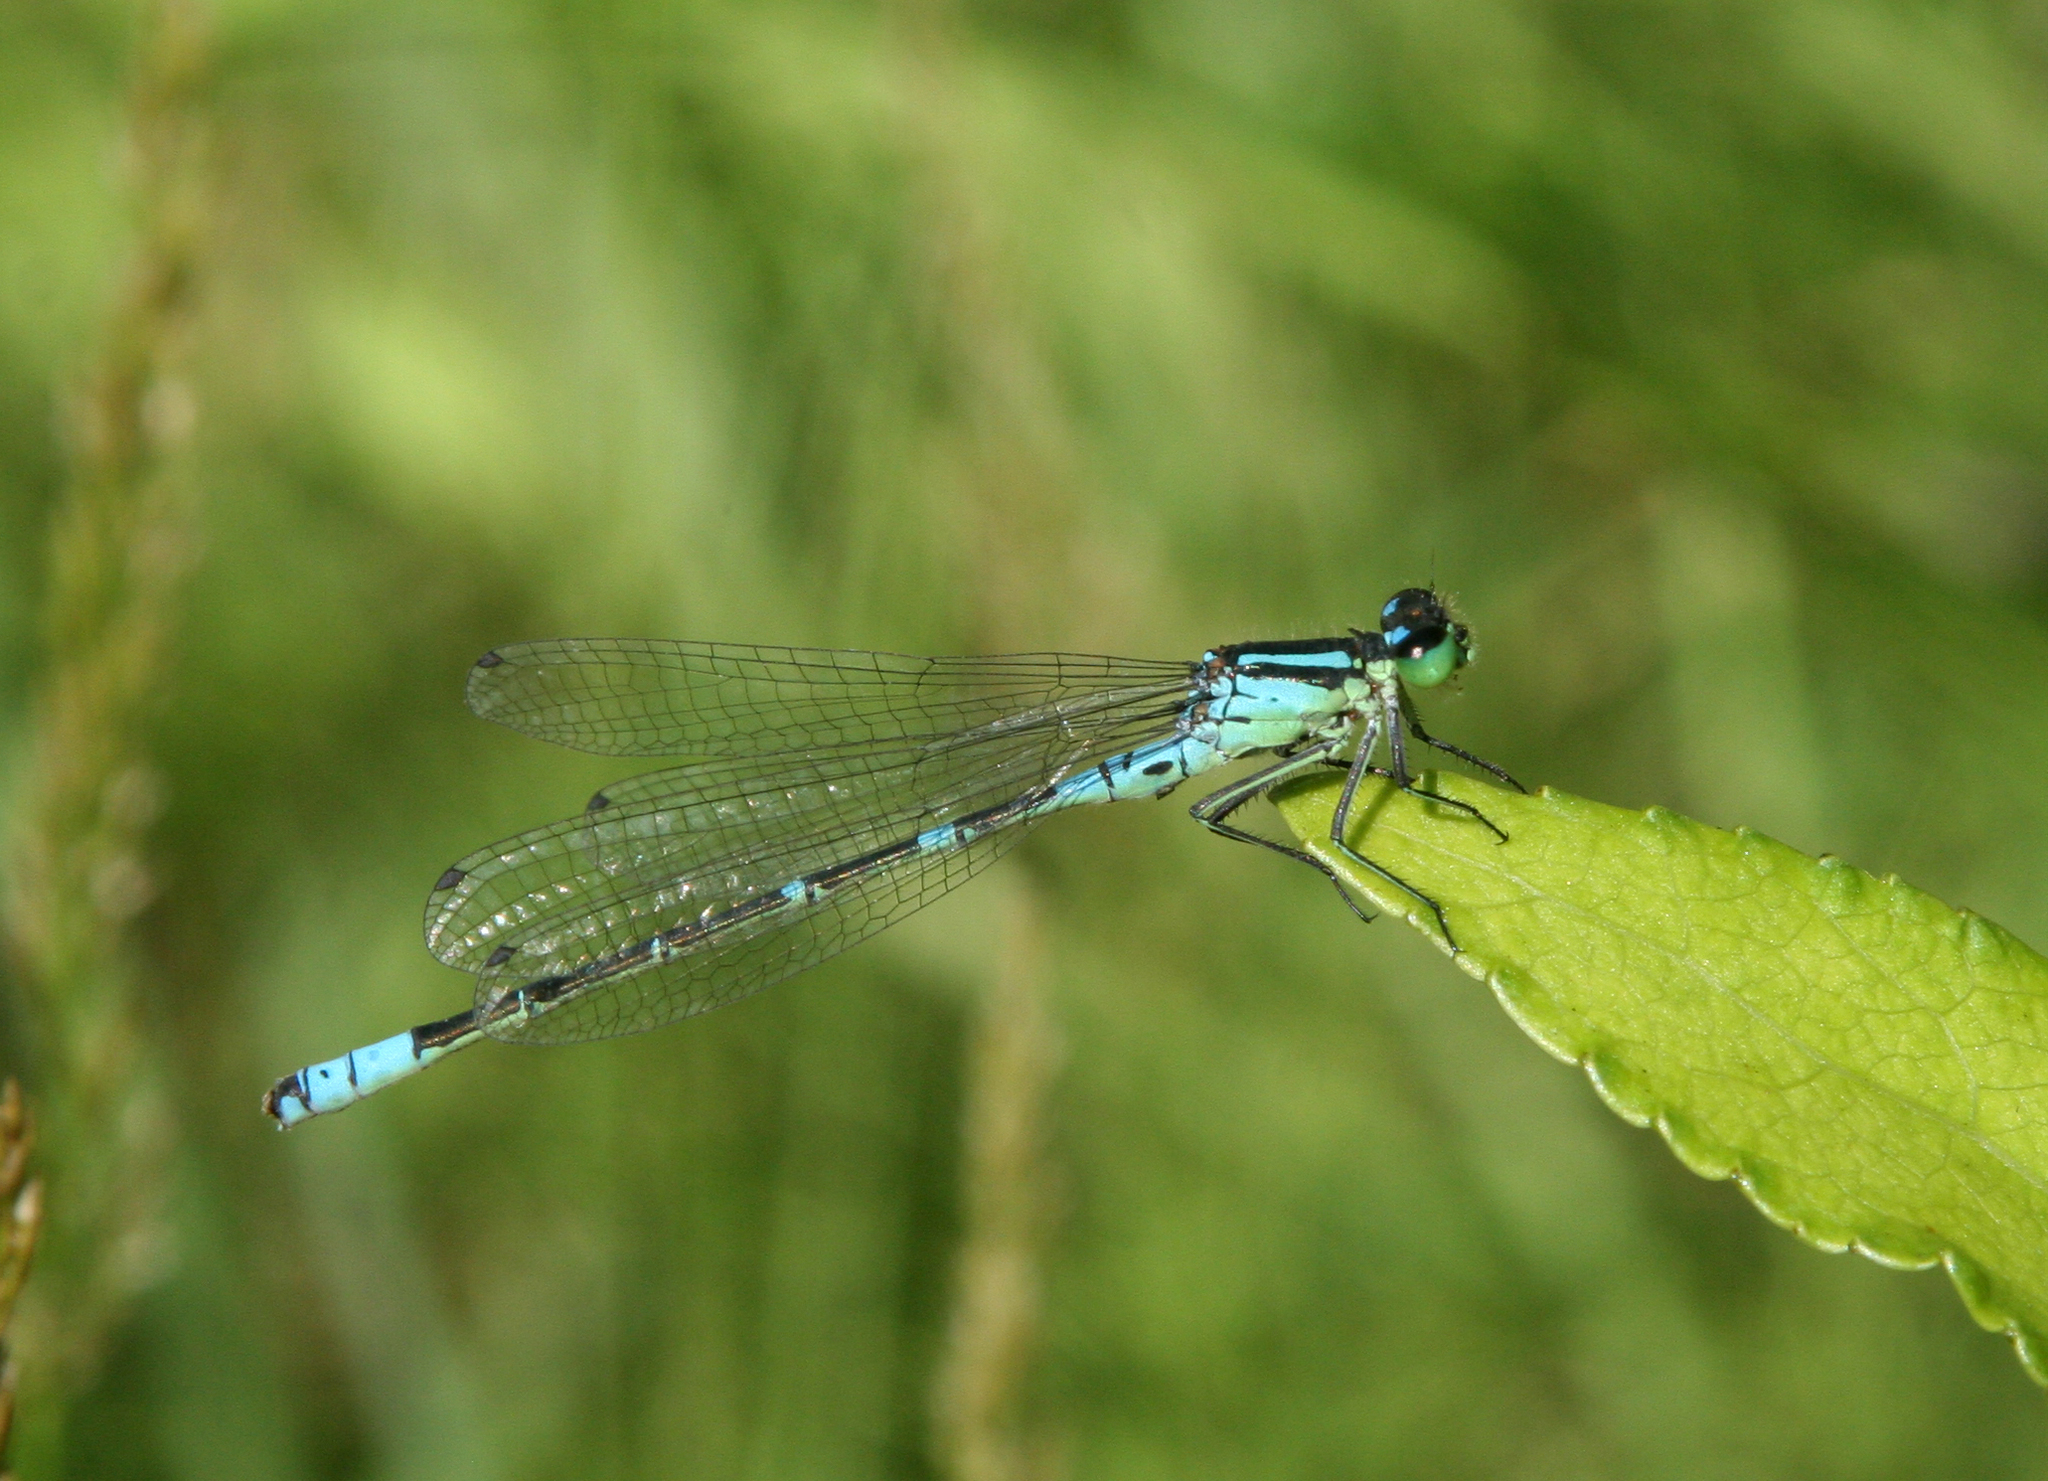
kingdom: Animalia
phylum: Arthropoda
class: Insecta
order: Odonata
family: Coenagrionidae
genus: Coenagrion
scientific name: Coenagrion lunulatum
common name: Irish damselfly
